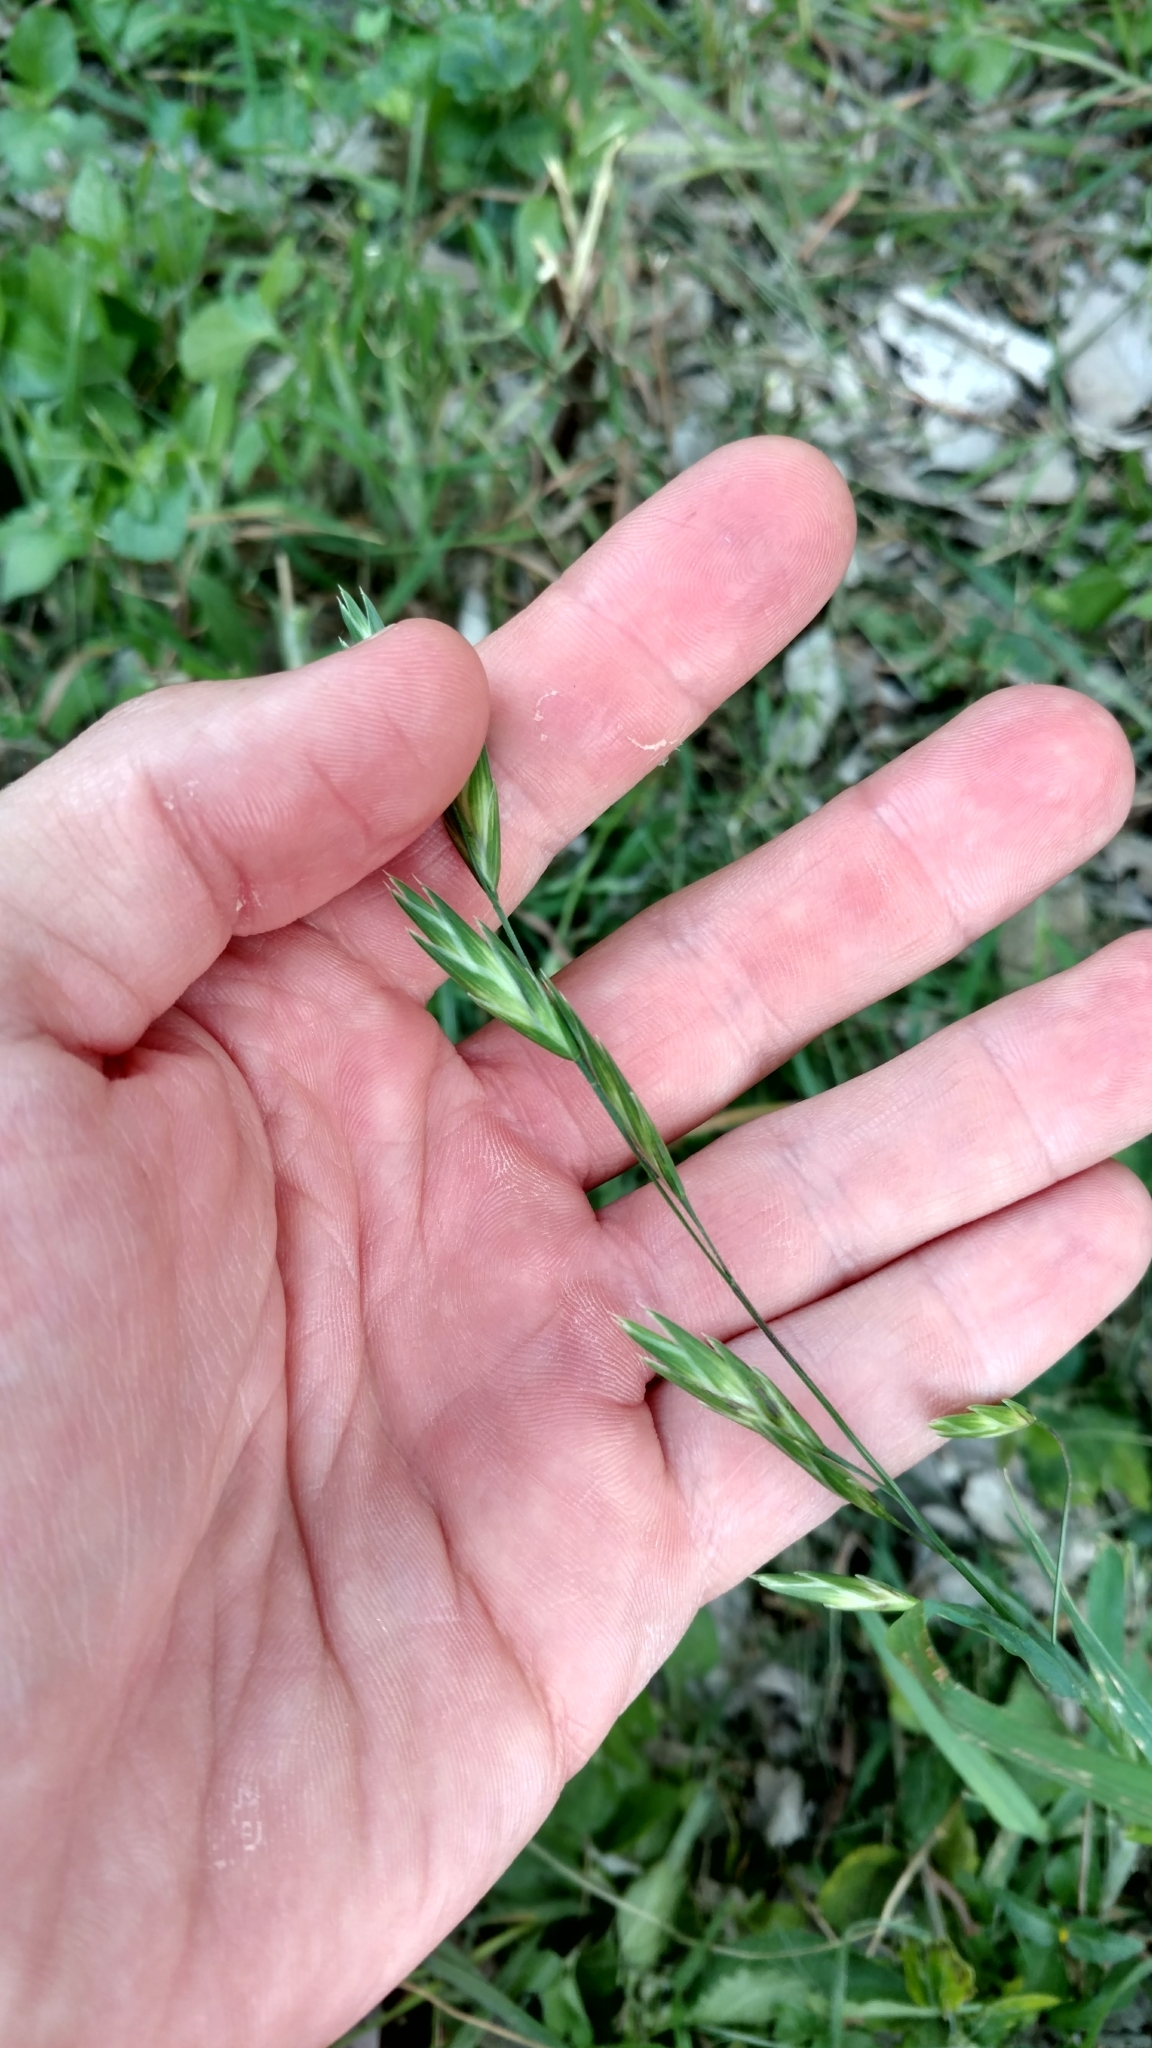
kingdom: Plantae
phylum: Tracheophyta
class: Liliopsida
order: Poales
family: Poaceae
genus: Bromus
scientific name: Bromus catharticus
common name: Rescuegrass
